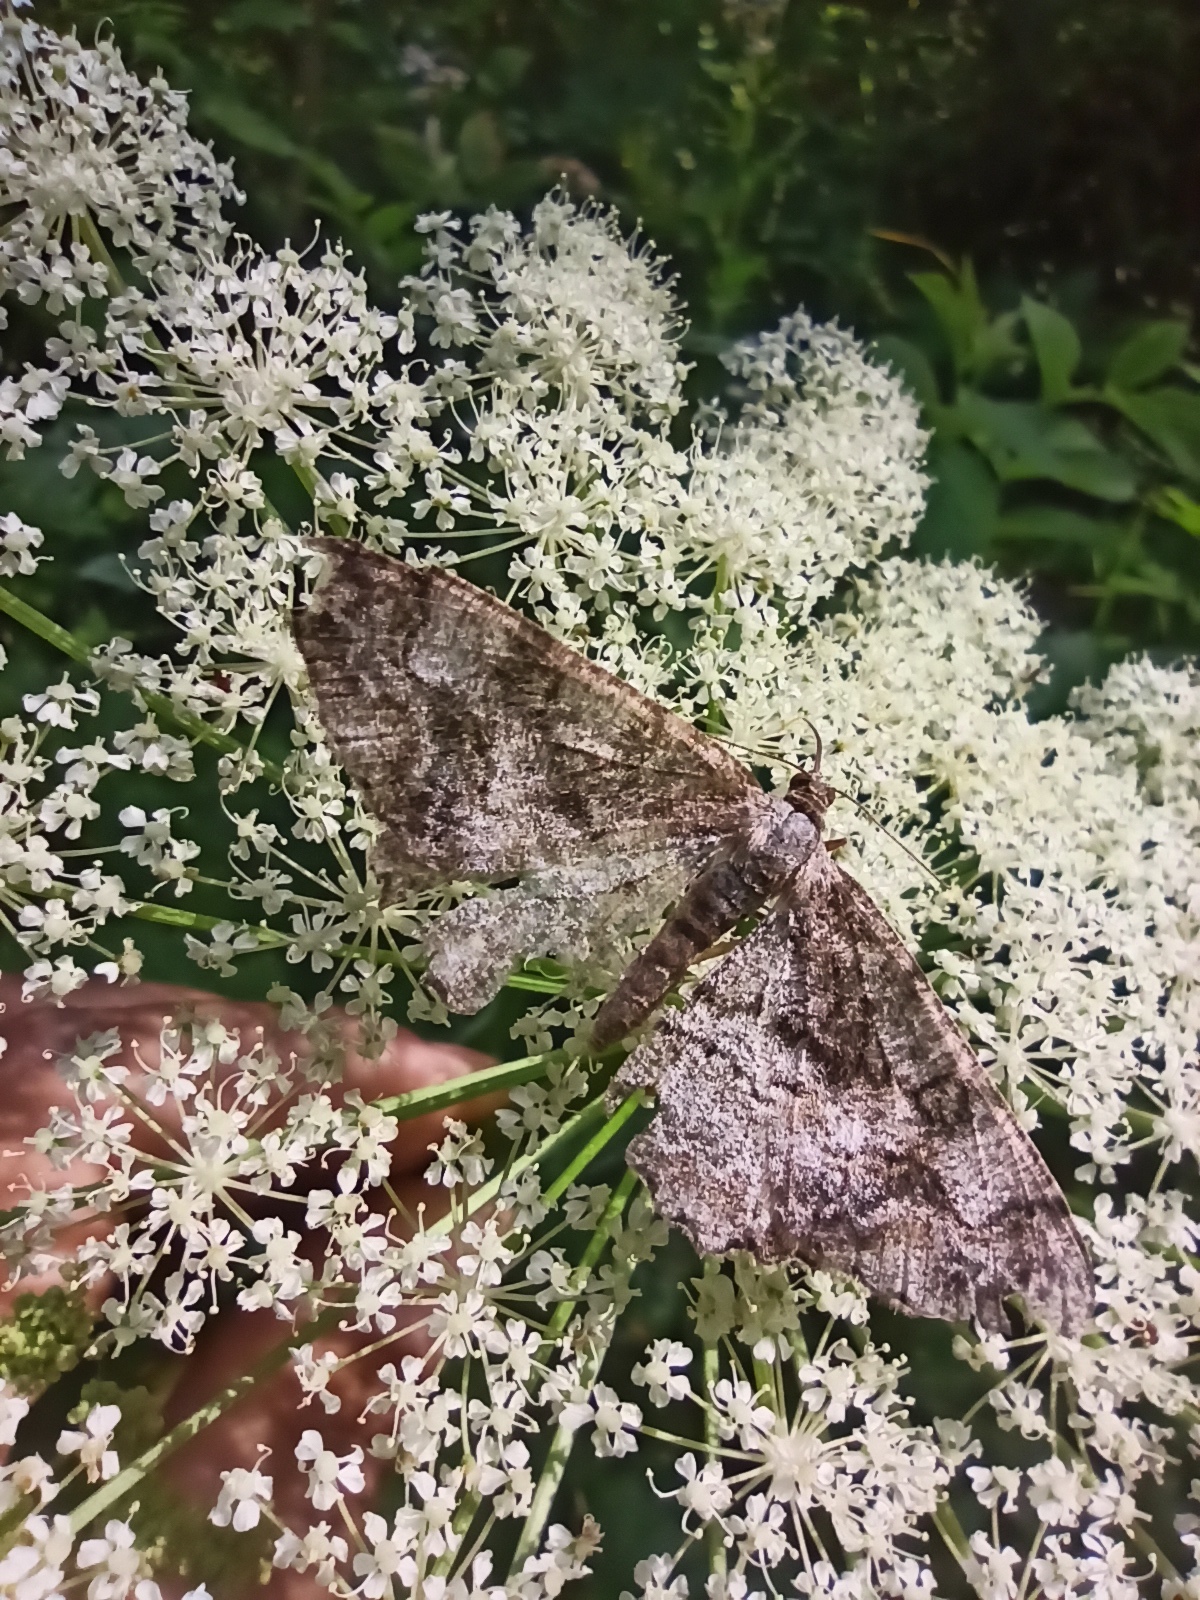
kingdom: Animalia
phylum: Arthropoda
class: Insecta
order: Lepidoptera
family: Geometridae
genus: Alcis
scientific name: Alcis repandata
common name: Mottled beauty
